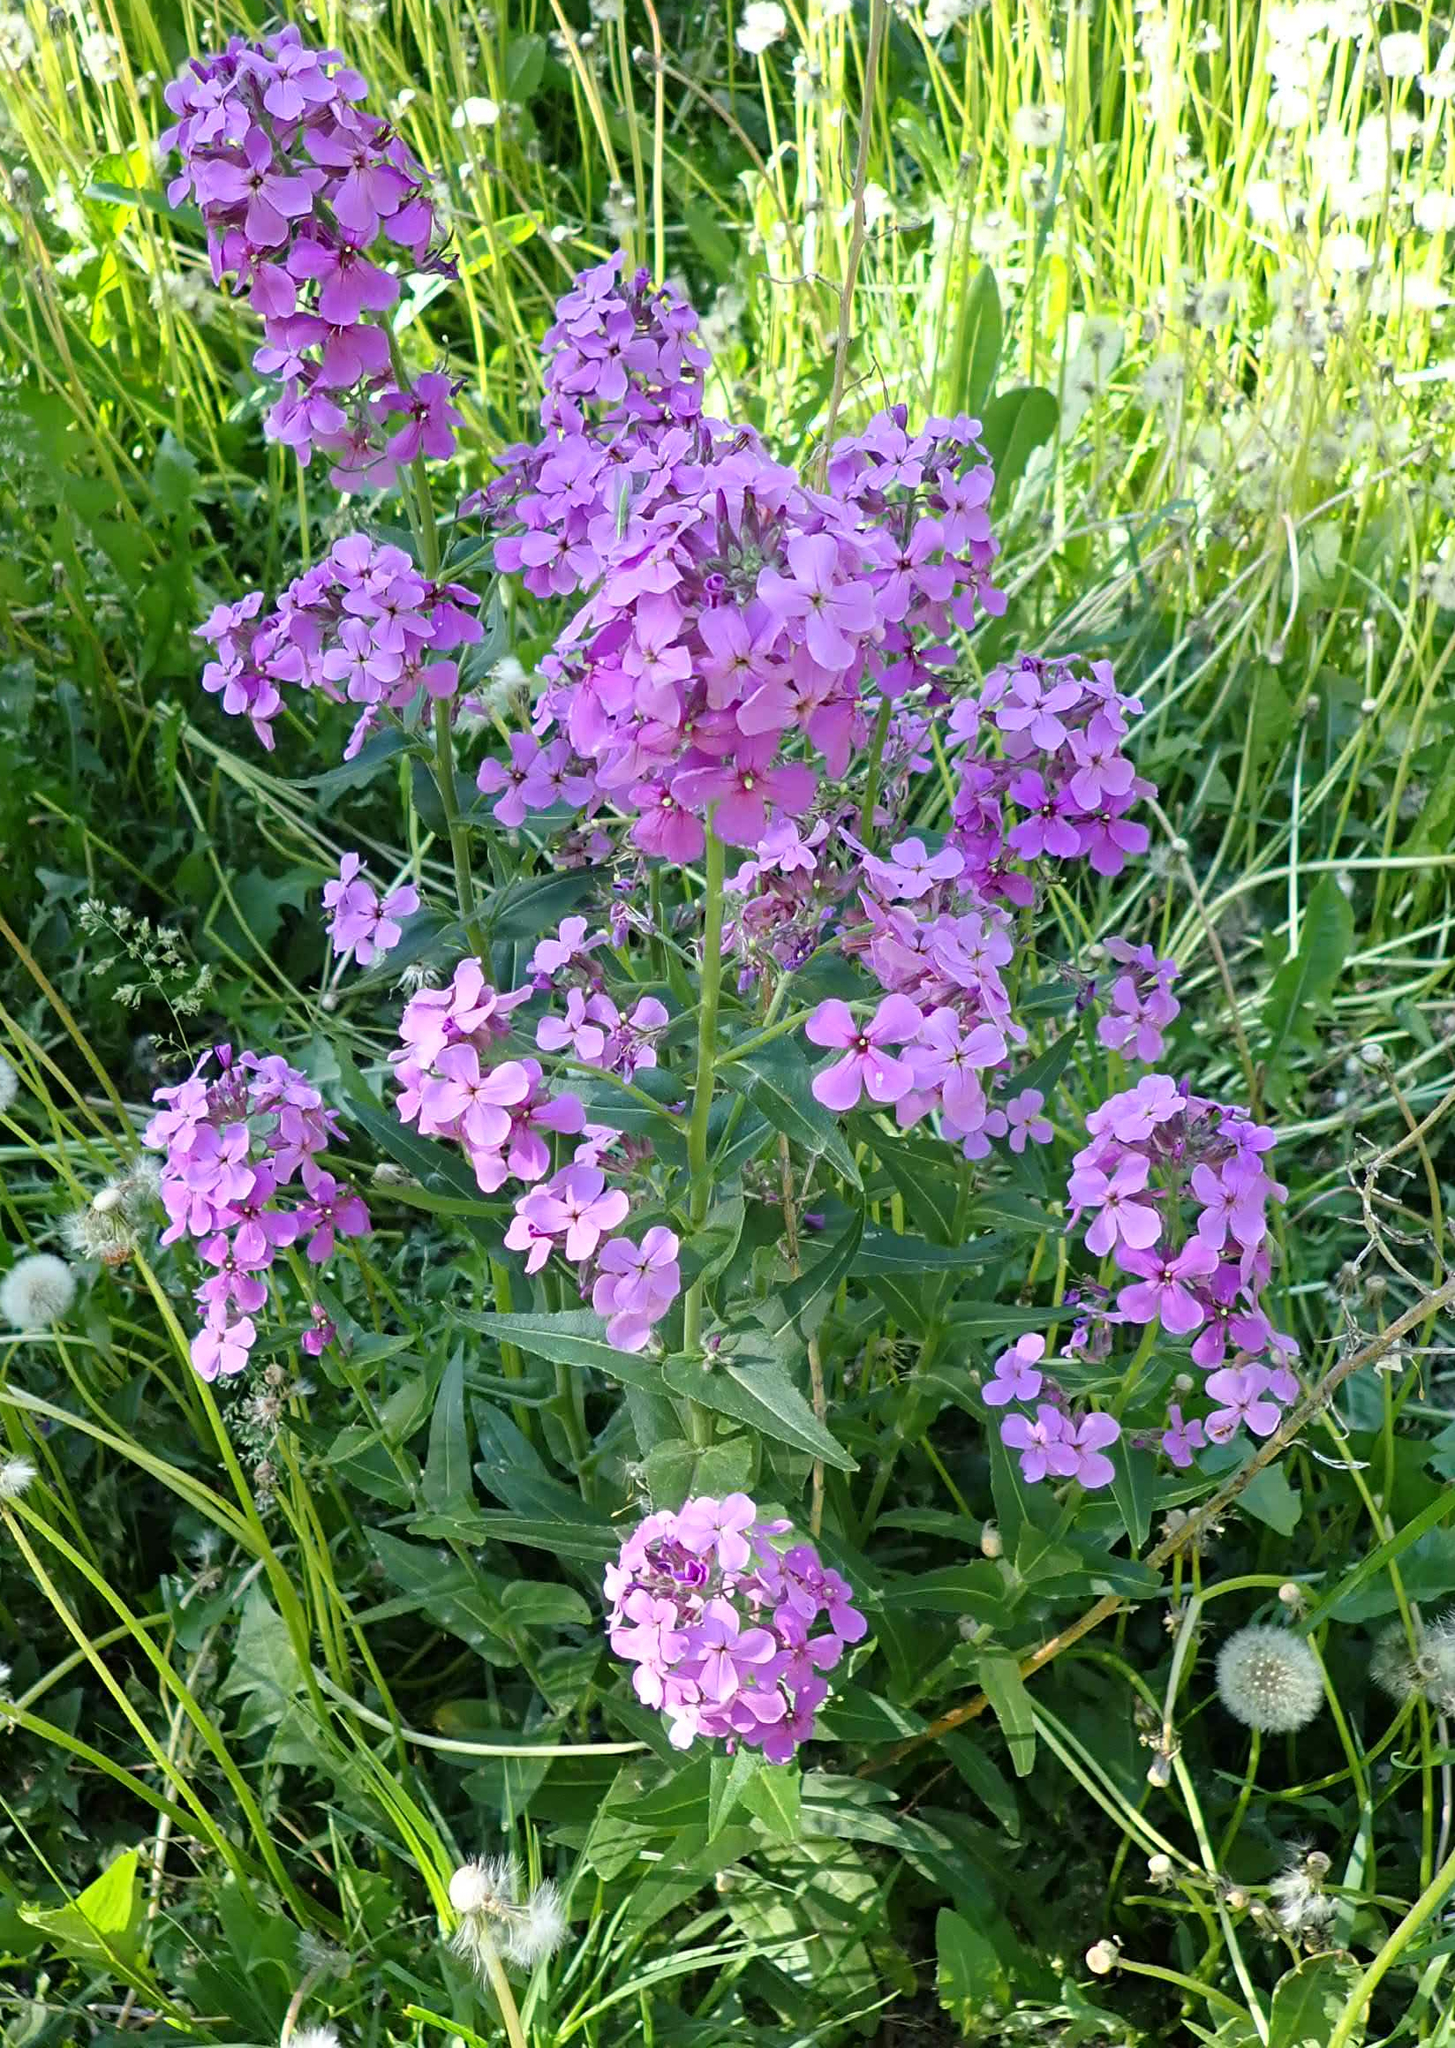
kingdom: Plantae
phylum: Tracheophyta
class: Magnoliopsida
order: Brassicales
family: Brassicaceae
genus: Hesperis
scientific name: Hesperis matronalis
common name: Dame's-violet
